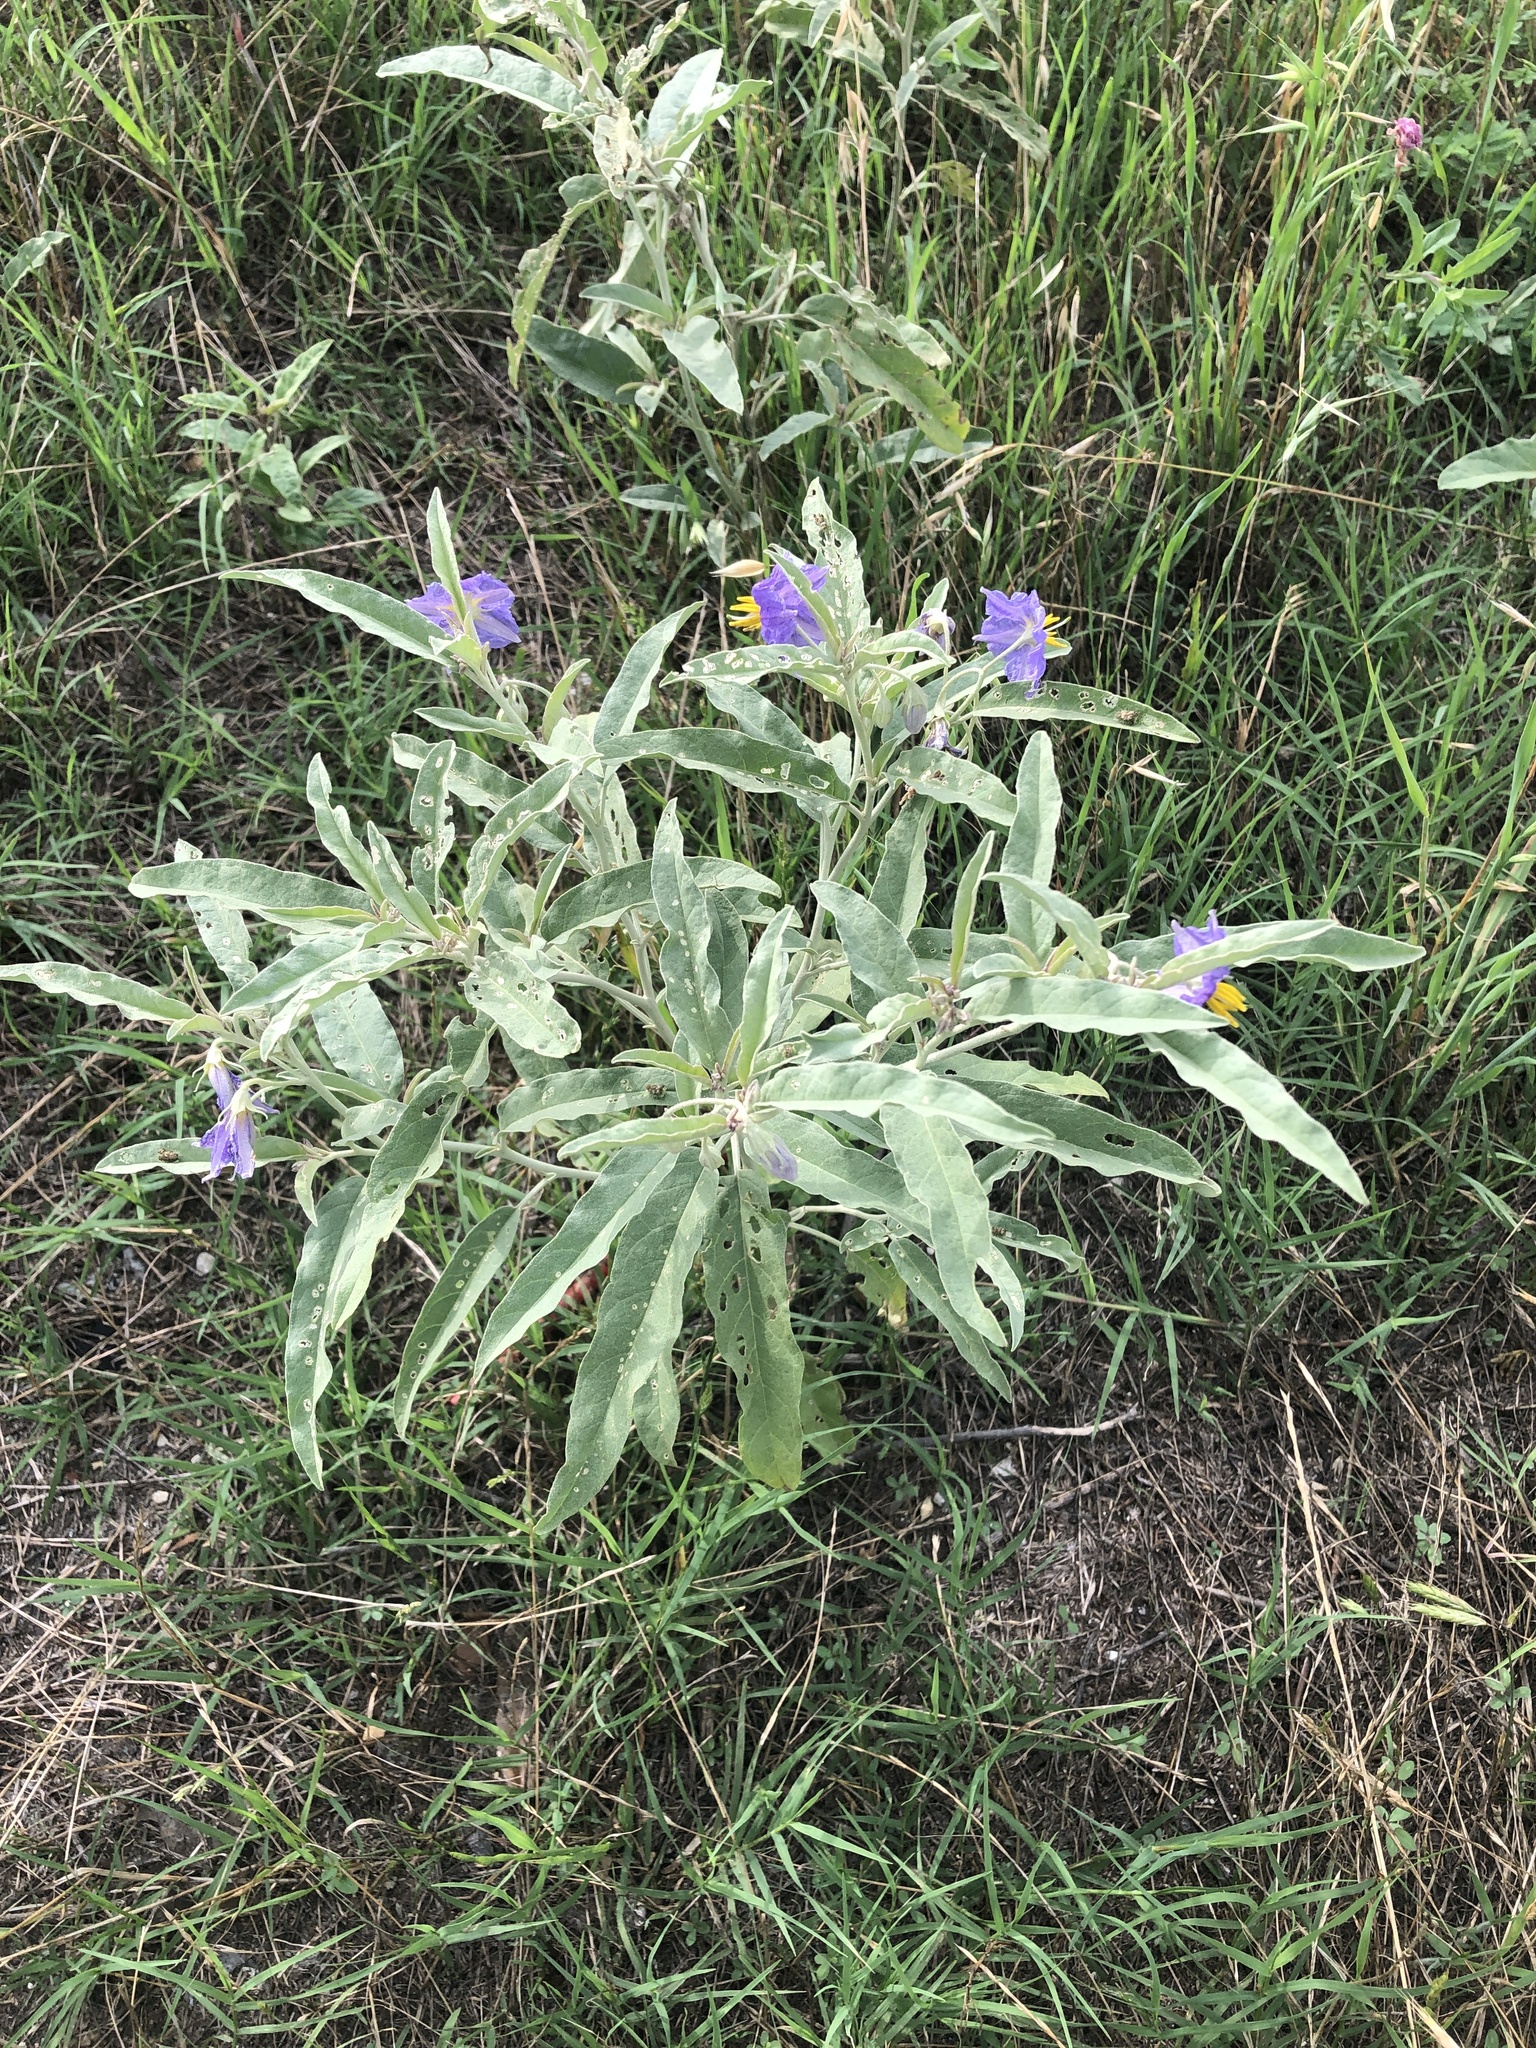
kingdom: Plantae
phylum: Tracheophyta
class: Magnoliopsida
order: Solanales
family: Solanaceae
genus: Solanum
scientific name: Solanum elaeagnifolium
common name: Silverleaf nightshade
